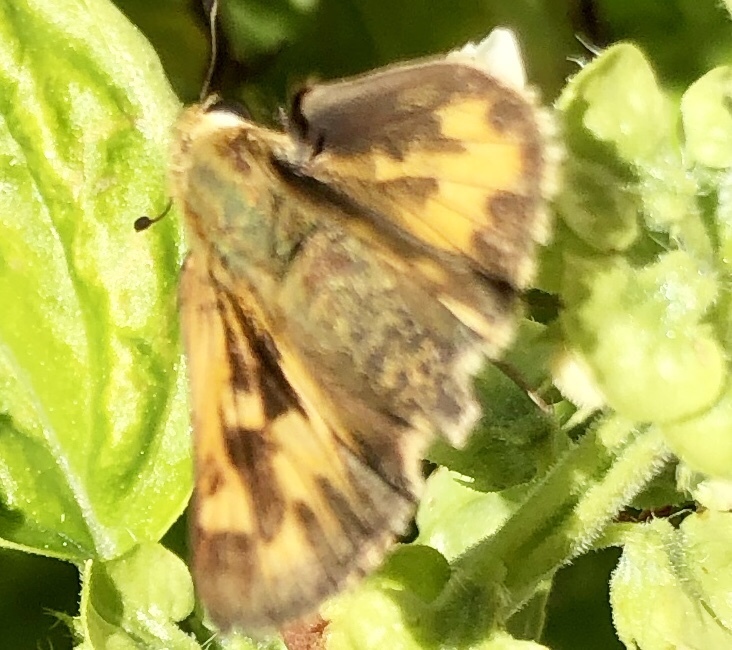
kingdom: Animalia
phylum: Arthropoda
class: Insecta
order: Lepidoptera
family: Hesperiidae
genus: Hylephila
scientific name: Hylephila phyleus
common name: Fiery skipper
